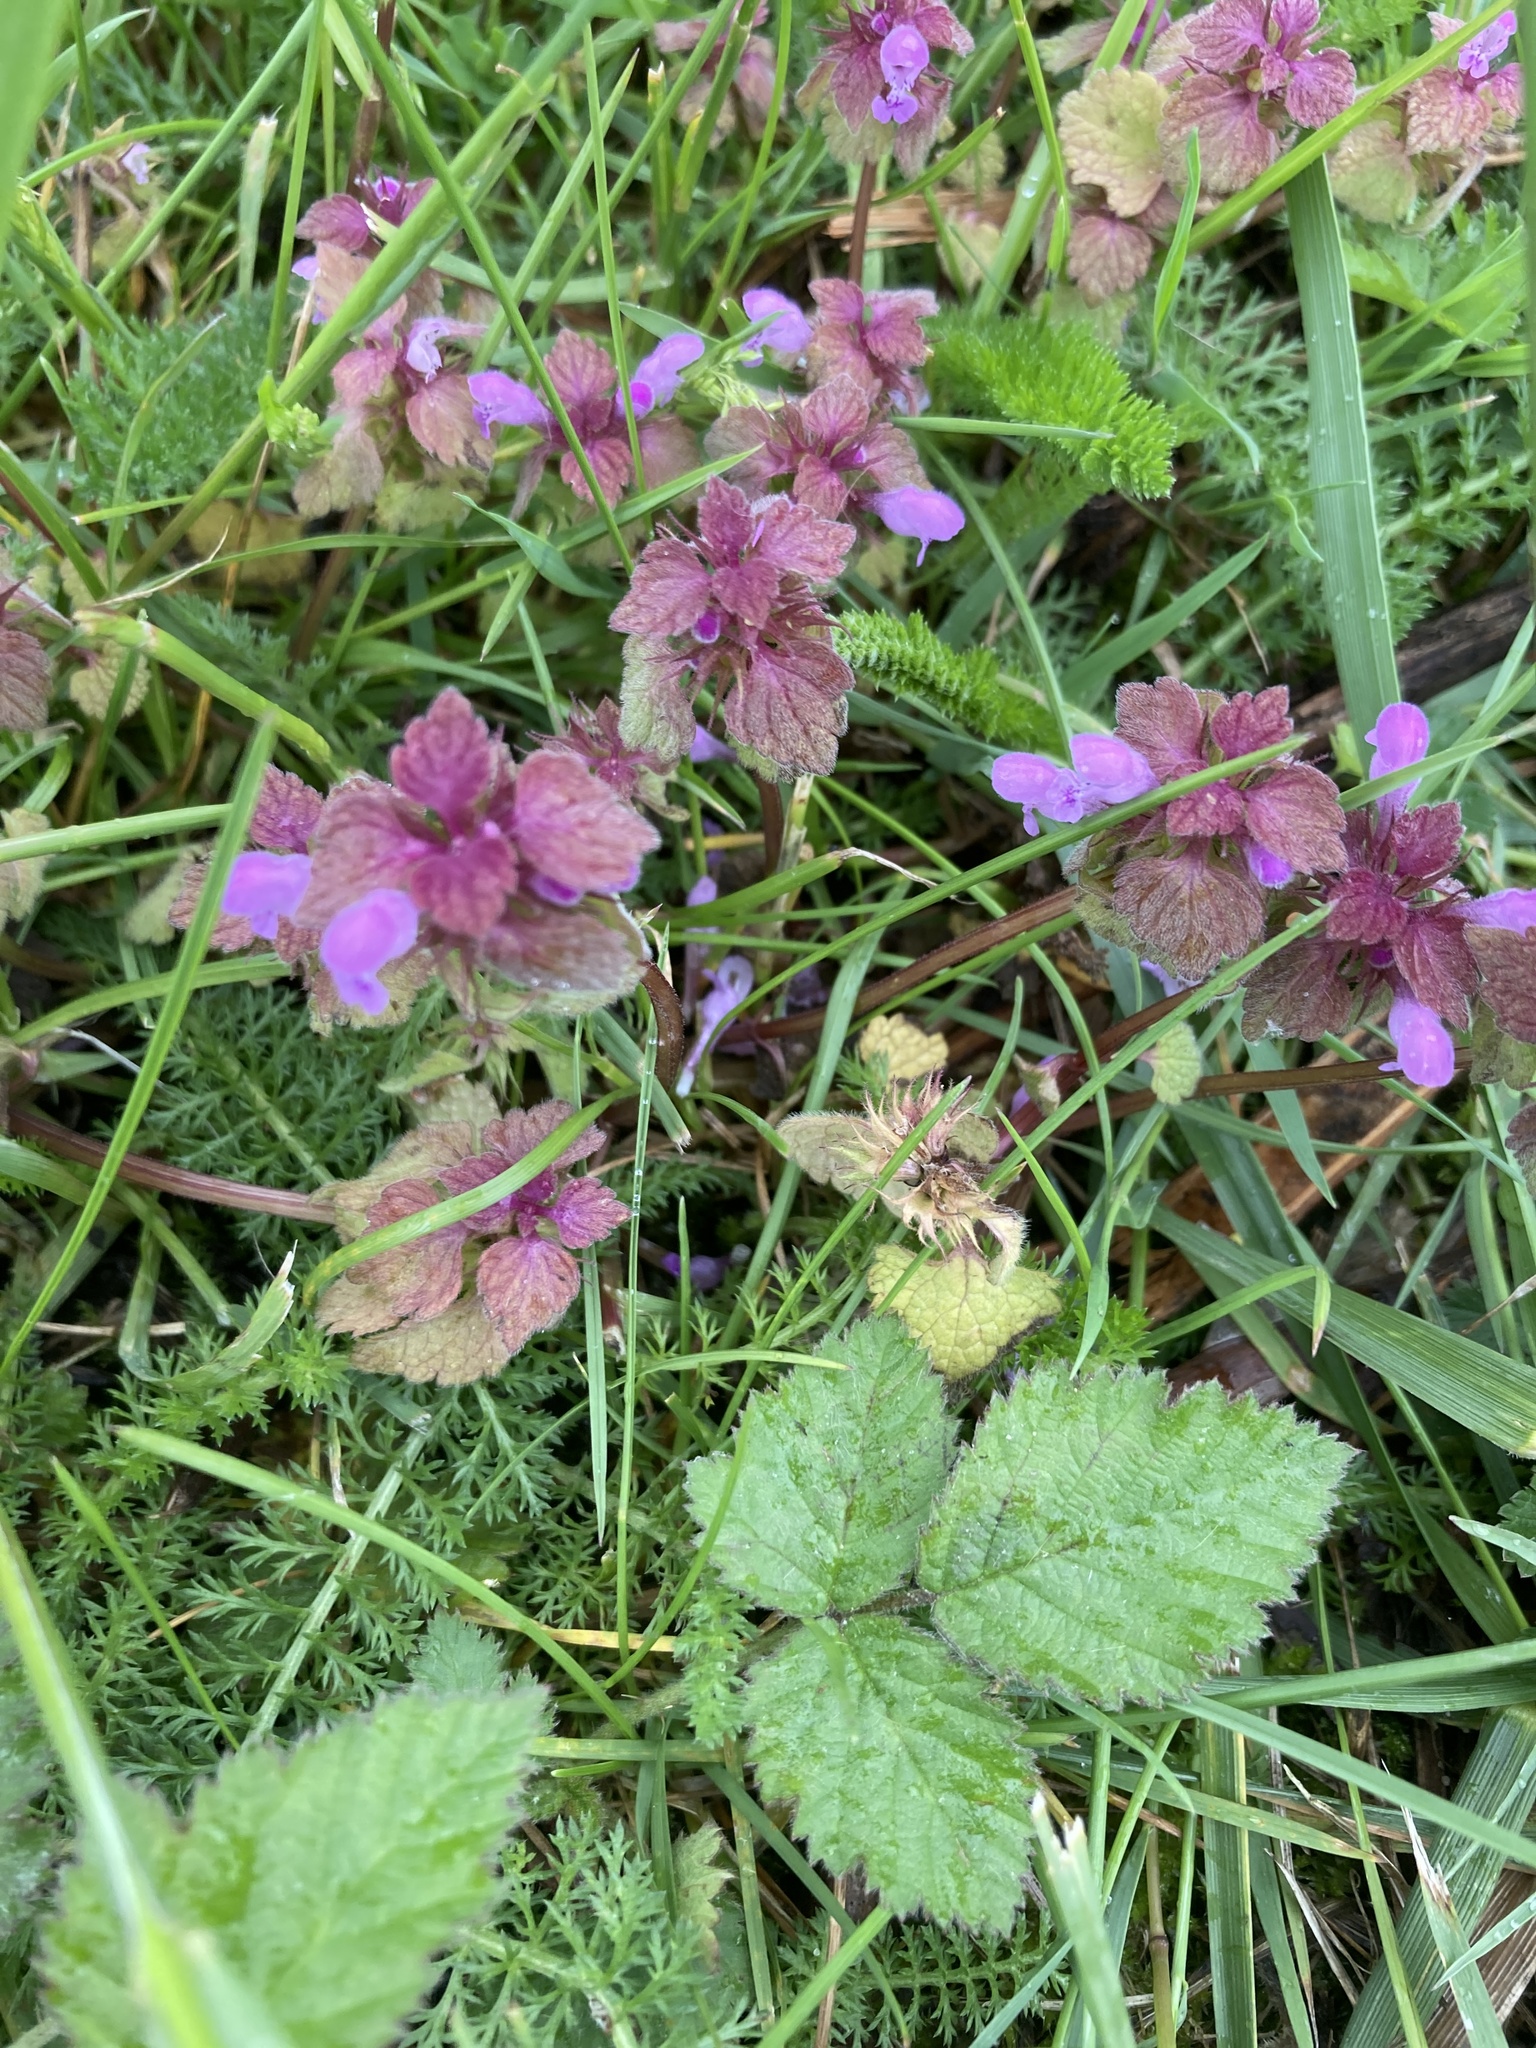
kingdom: Plantae
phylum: Tracheophyta
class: Magnoliopsida
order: Lamiales
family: Lamiaceae
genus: Lamium
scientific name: Lamium purpureum
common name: Red dead-nettle
